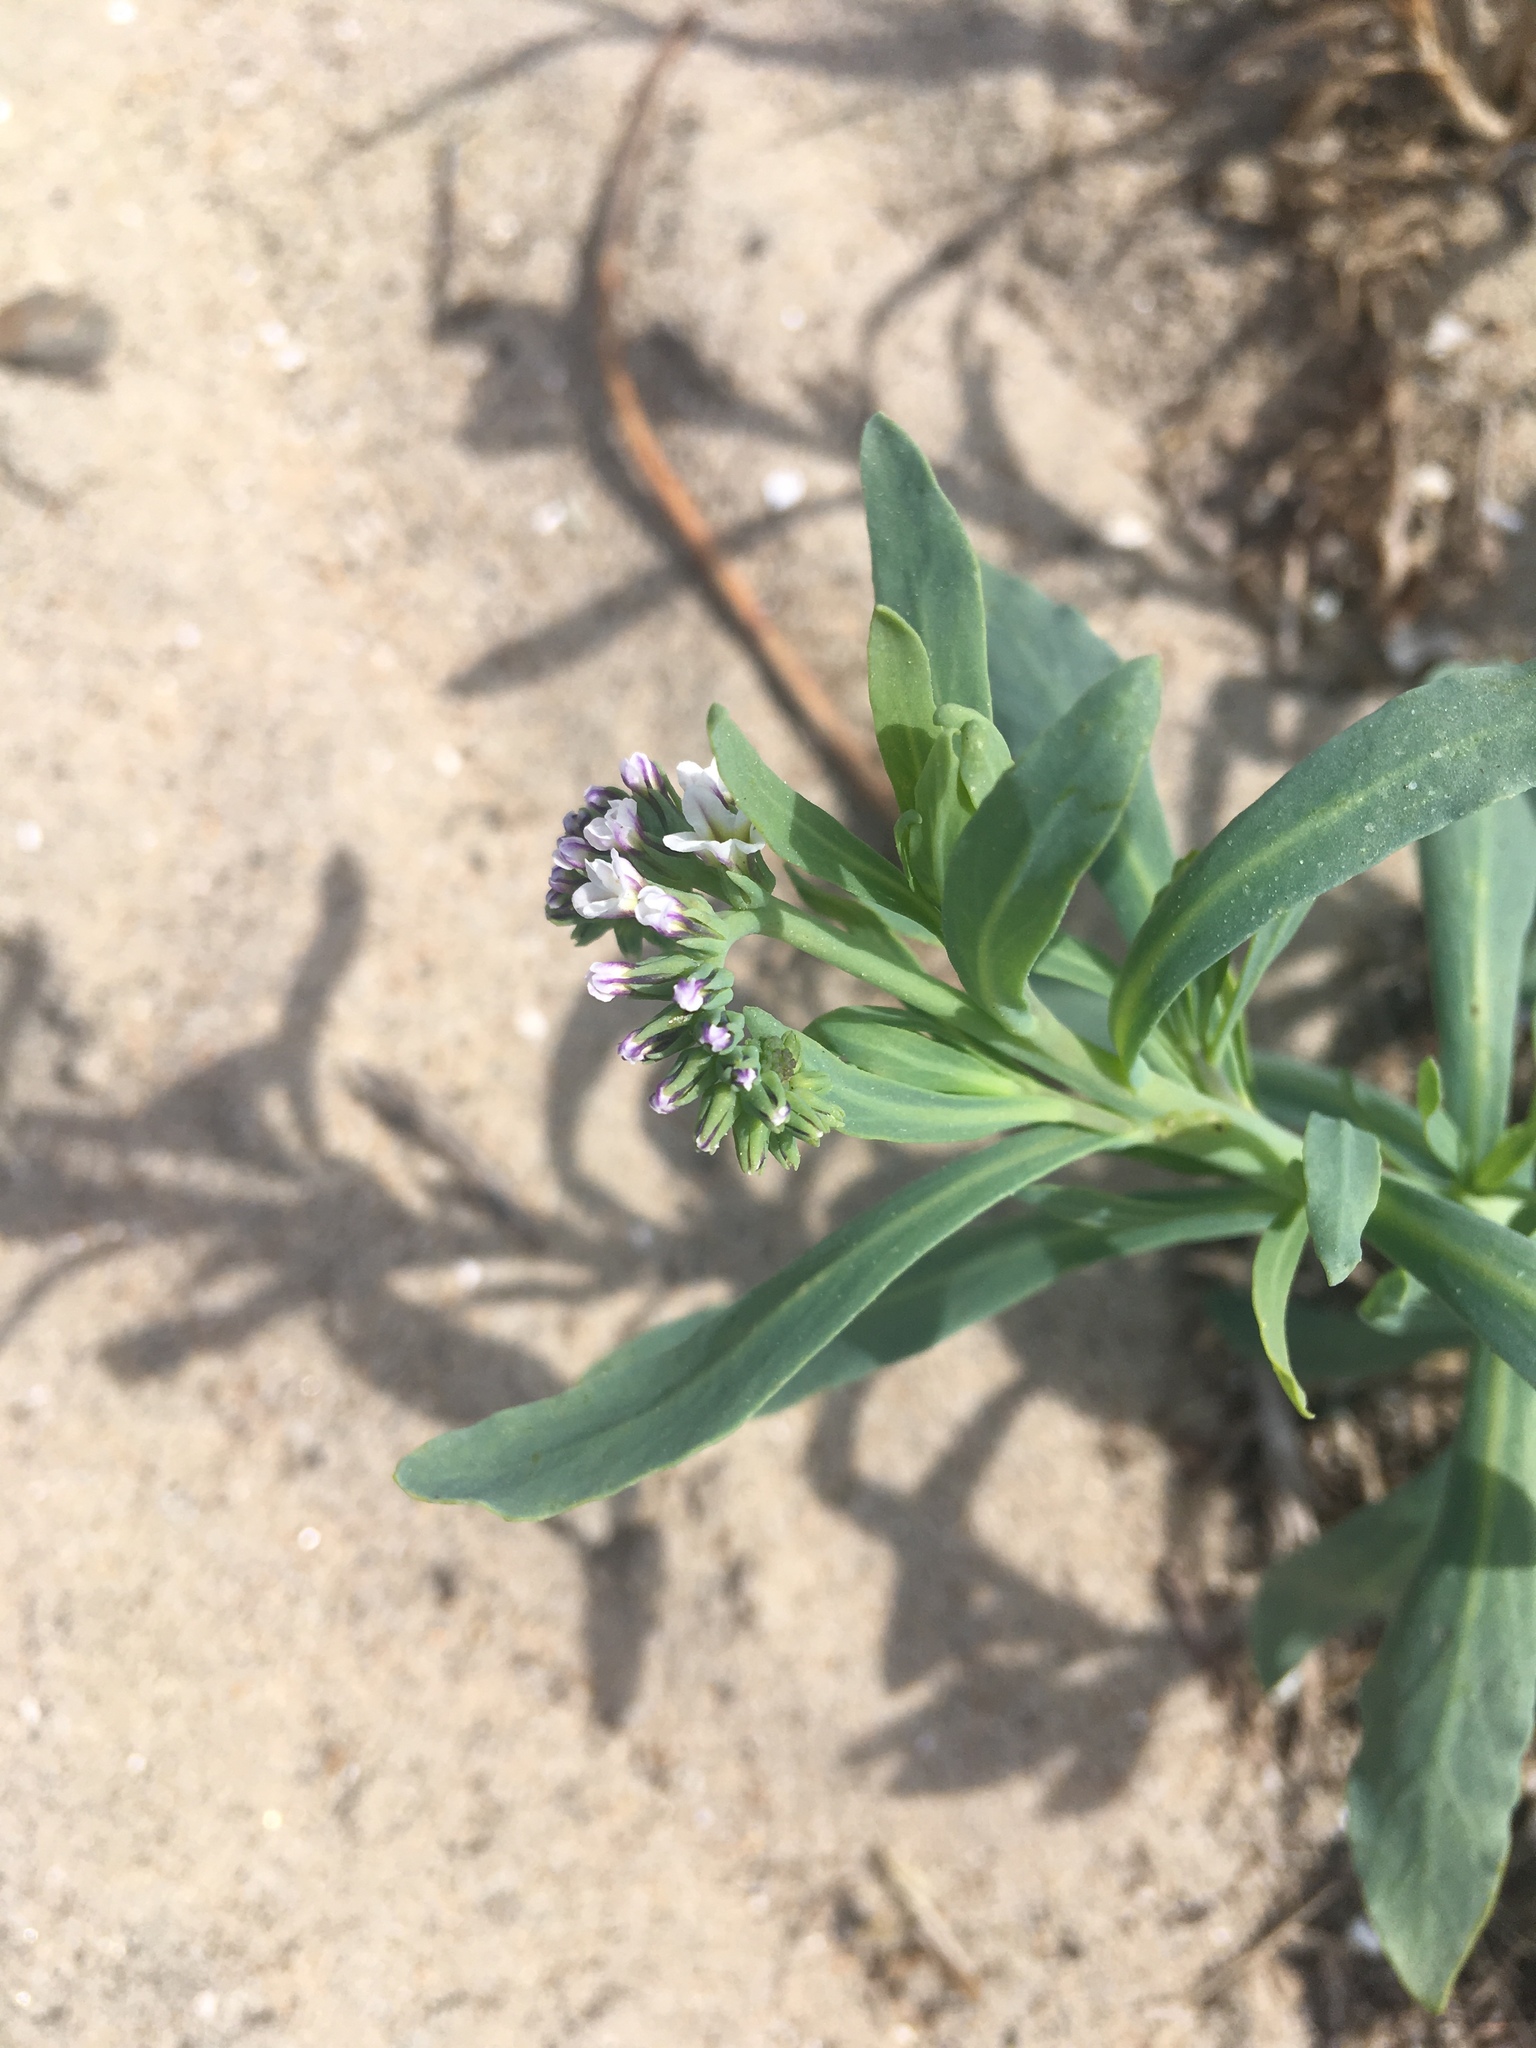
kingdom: Plantae
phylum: Tracheophyta
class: Magnoliopsida
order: Boraginales
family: Heliotropiaceae
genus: Heliotropium
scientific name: Heliotropium curassavicum
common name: Seaside heliotrope
